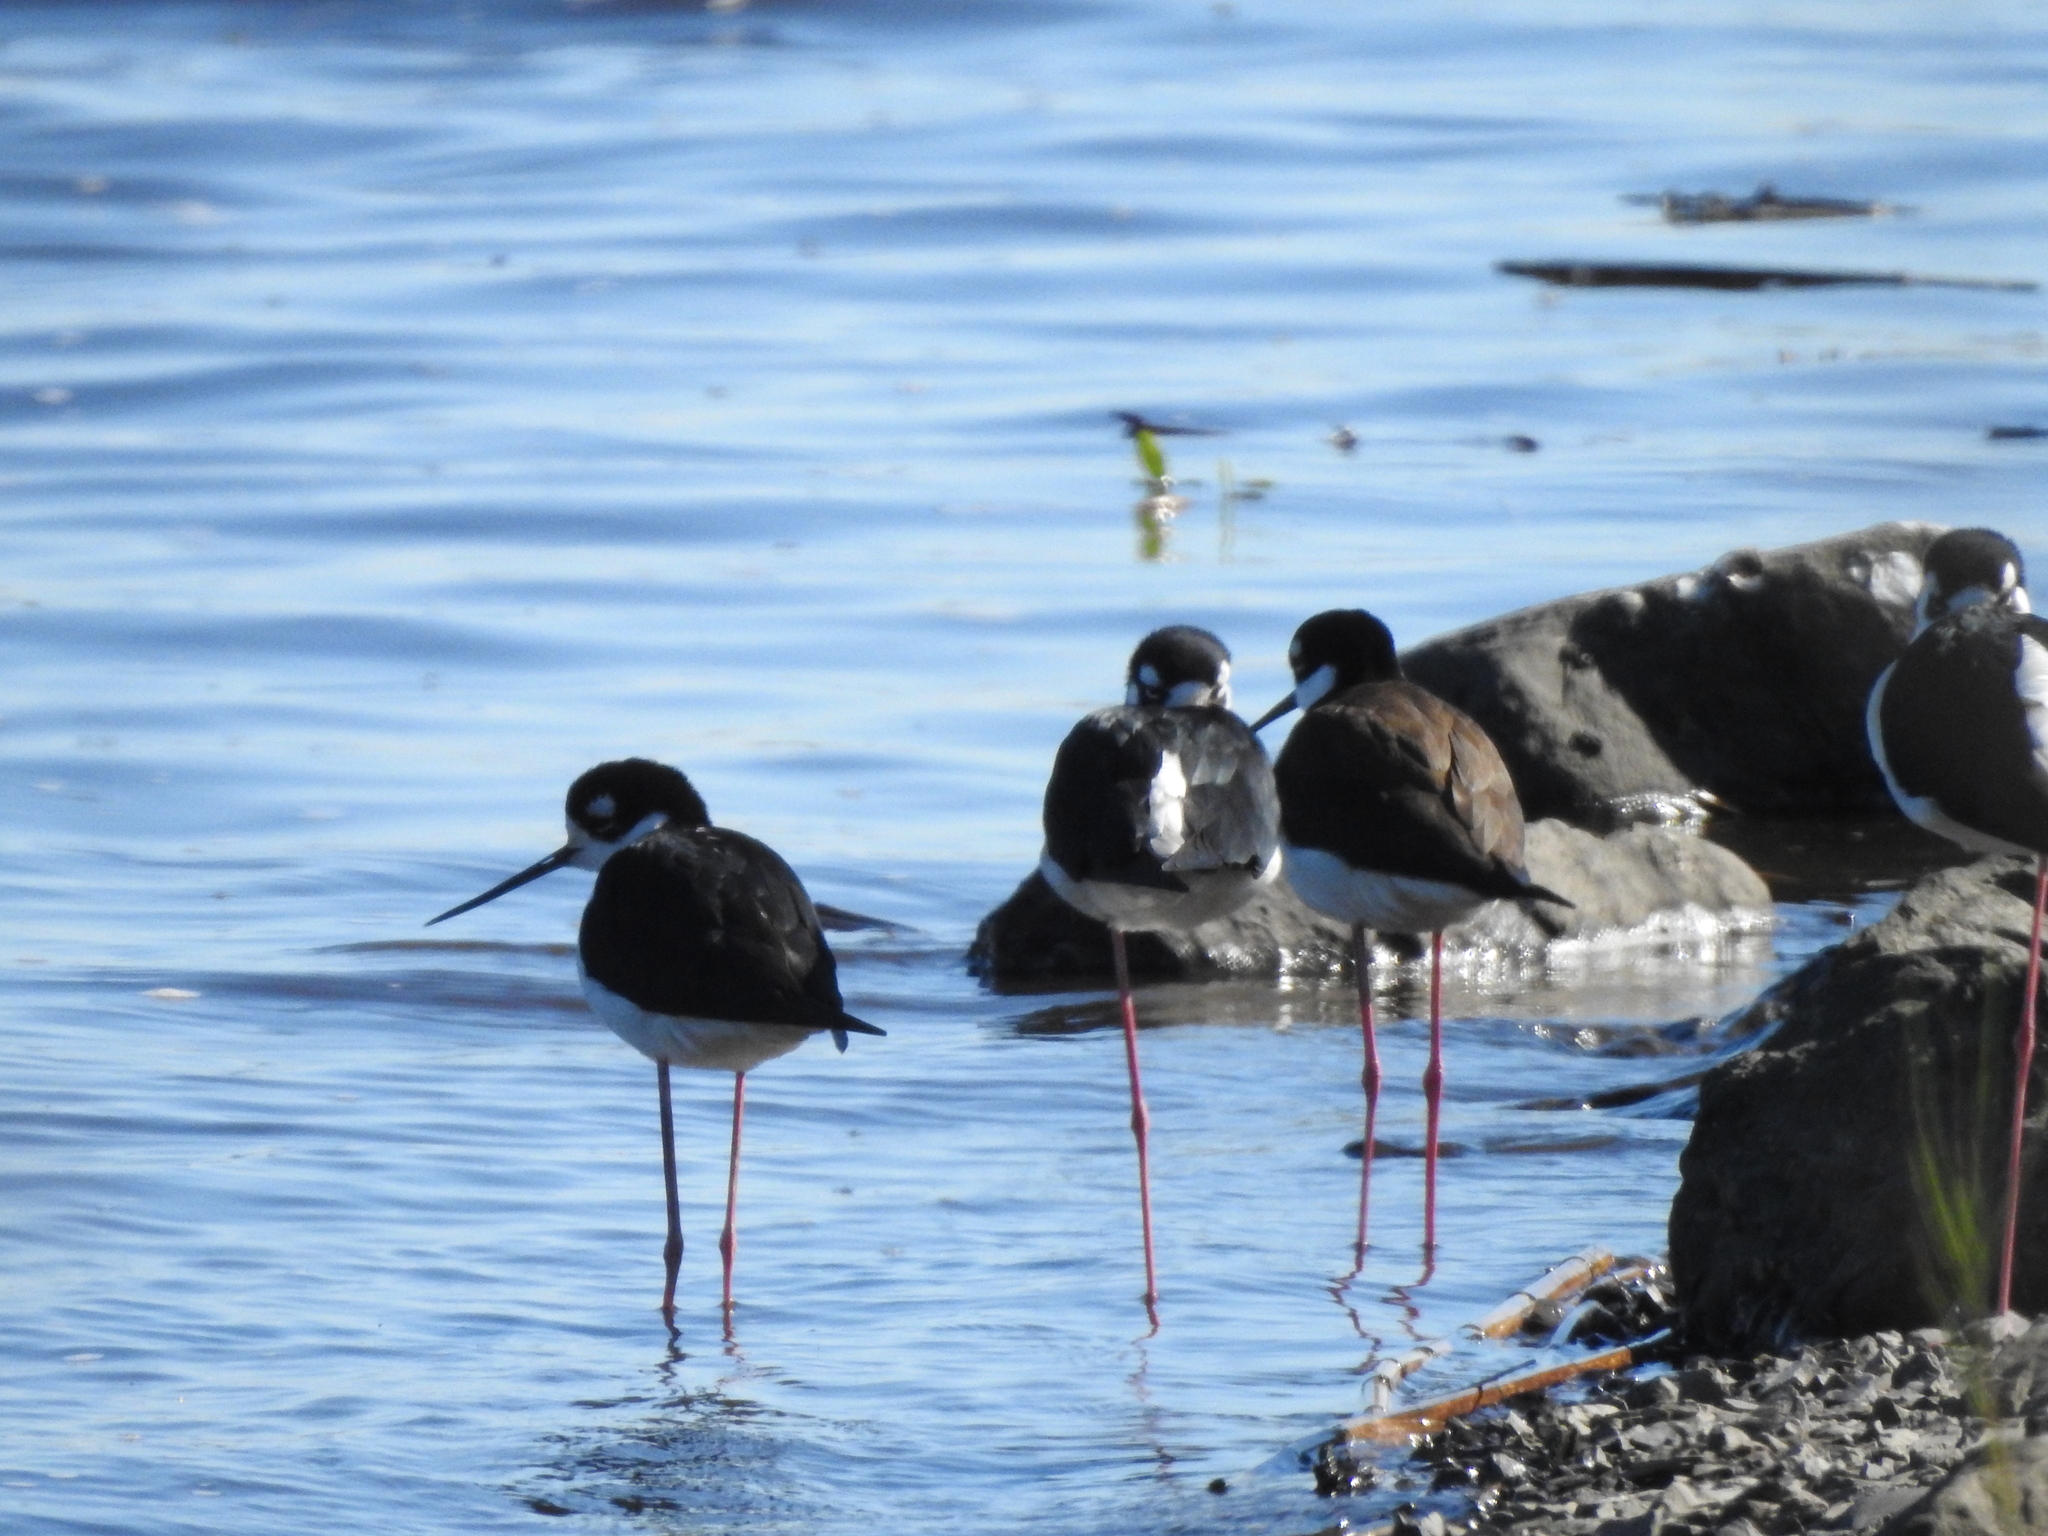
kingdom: Animalia
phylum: Chordata
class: Aves
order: Charadriiformes
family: Recurvirostridae
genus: Himantopus
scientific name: Himantopus mexicanus
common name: Black-necked stilt
